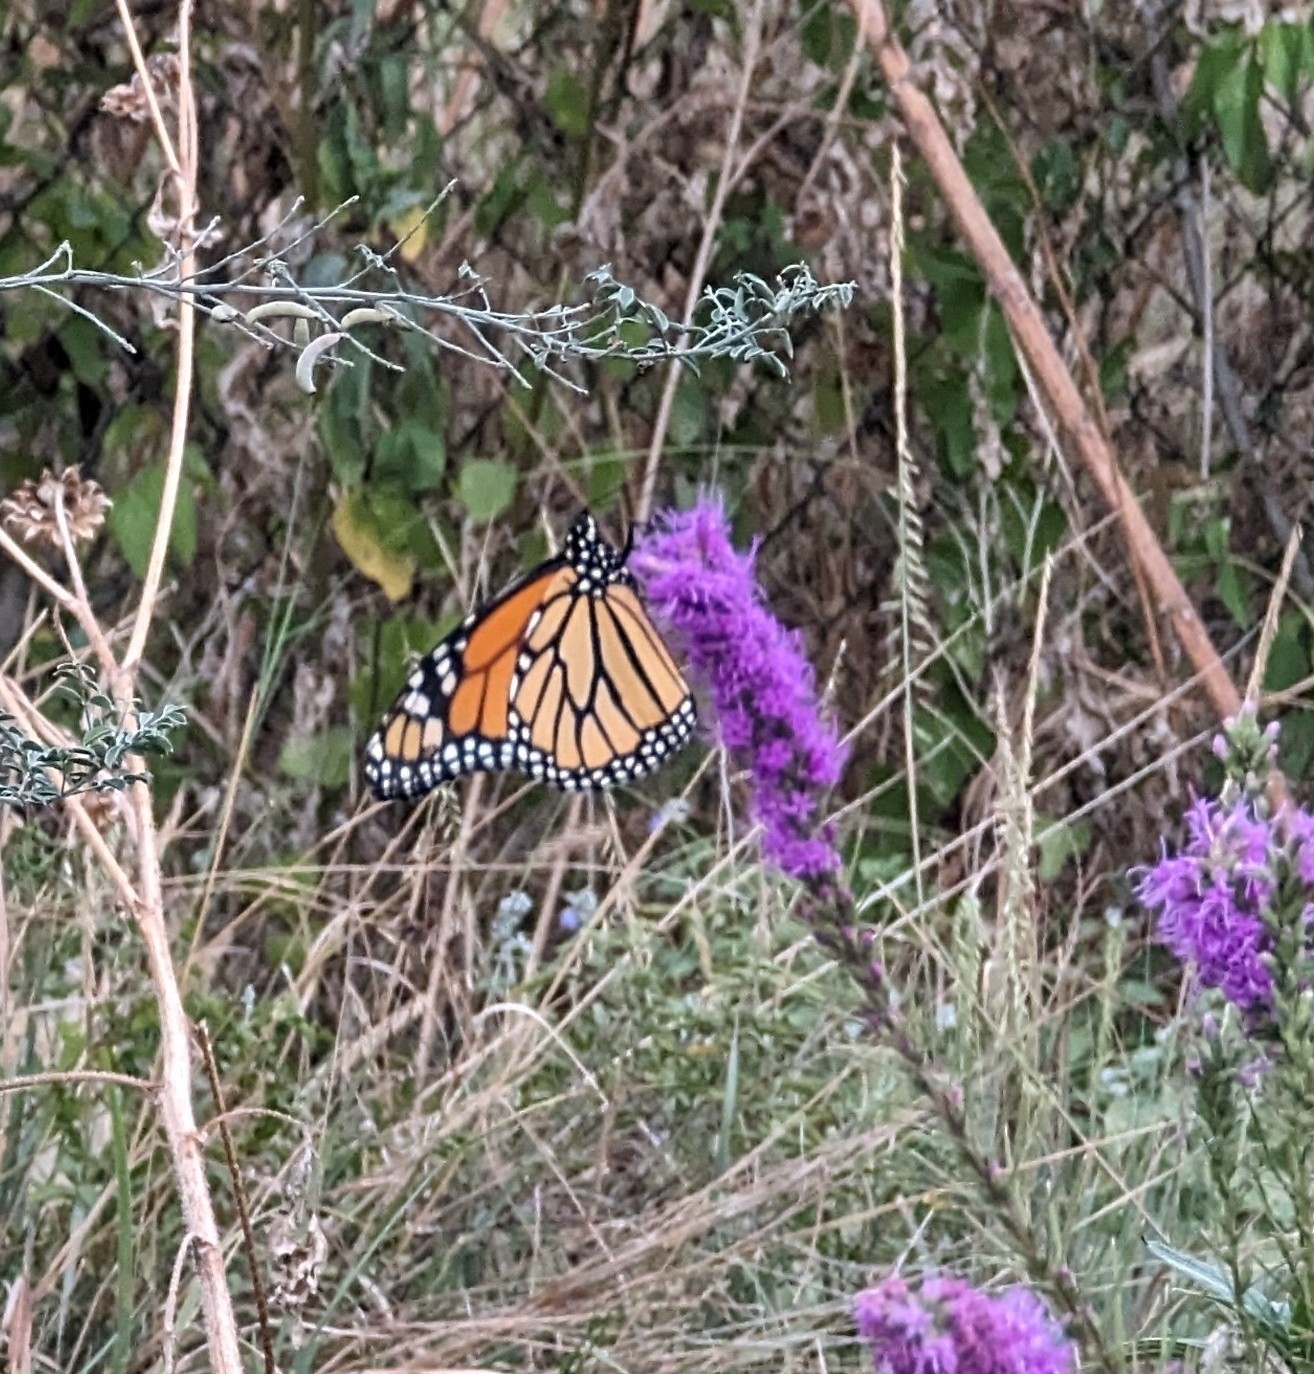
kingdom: Animalia
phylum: Arthropoda
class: Insecta
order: Lepidoptera
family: Nymphalidae
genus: Danaus
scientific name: Danaus plexippus
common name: Monarch
